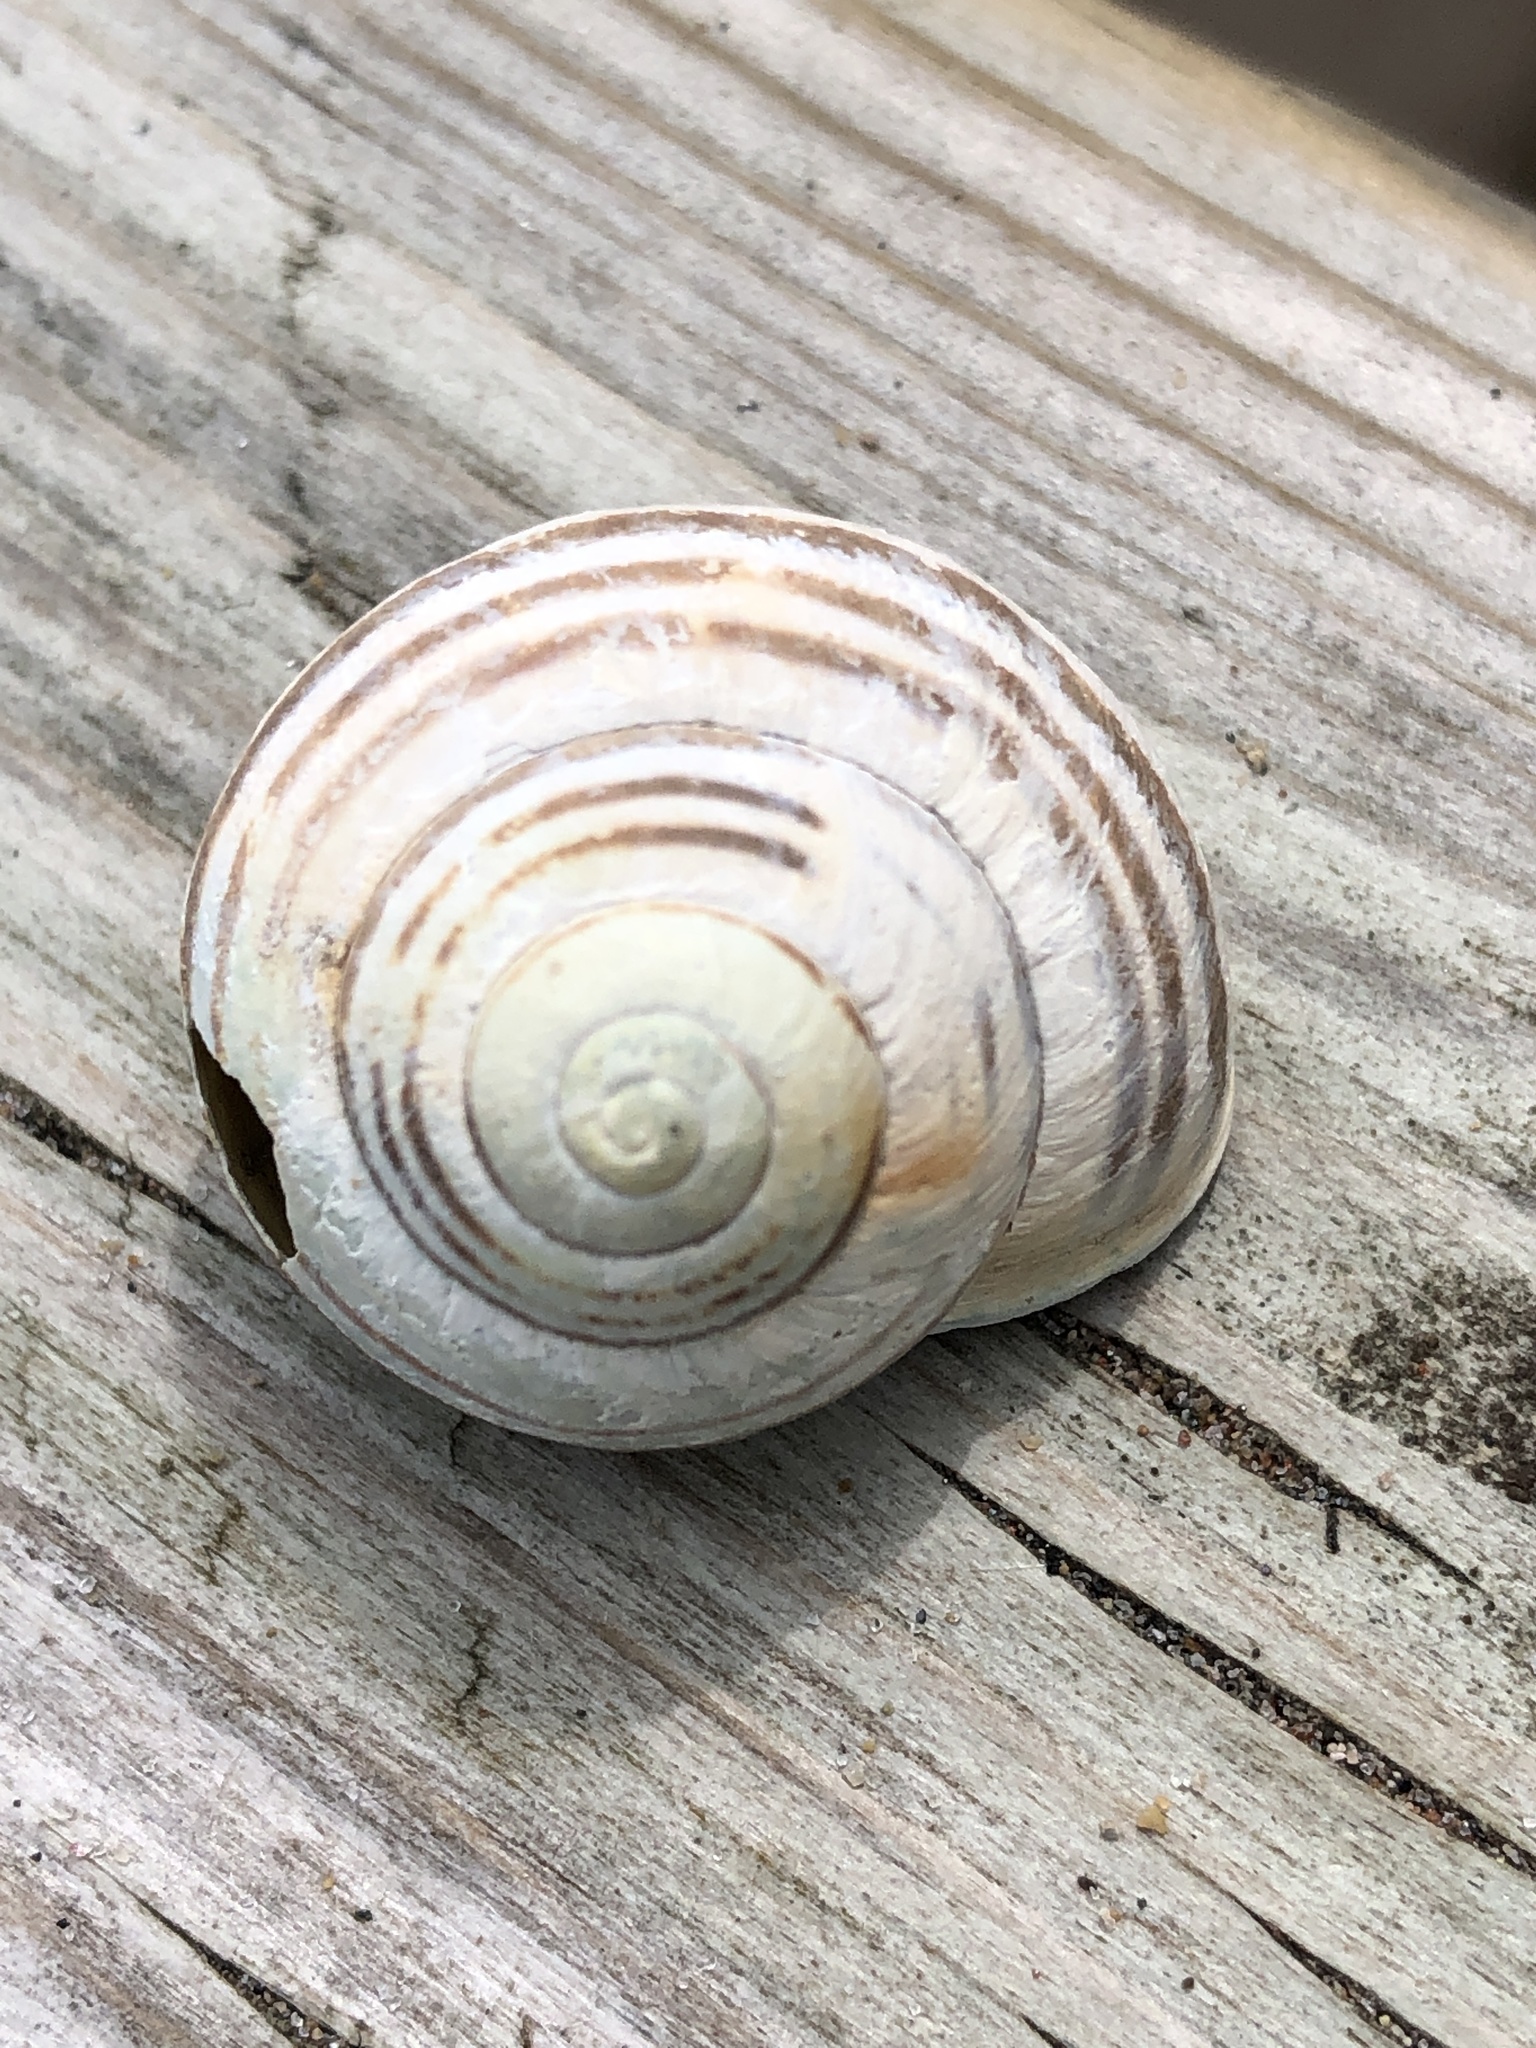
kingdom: Animalia
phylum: Mollusca
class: Gastropoda
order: Stylommatophora
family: Helicidae
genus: Cepaea
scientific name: Cepaea nemoralis
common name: Grovesnail
